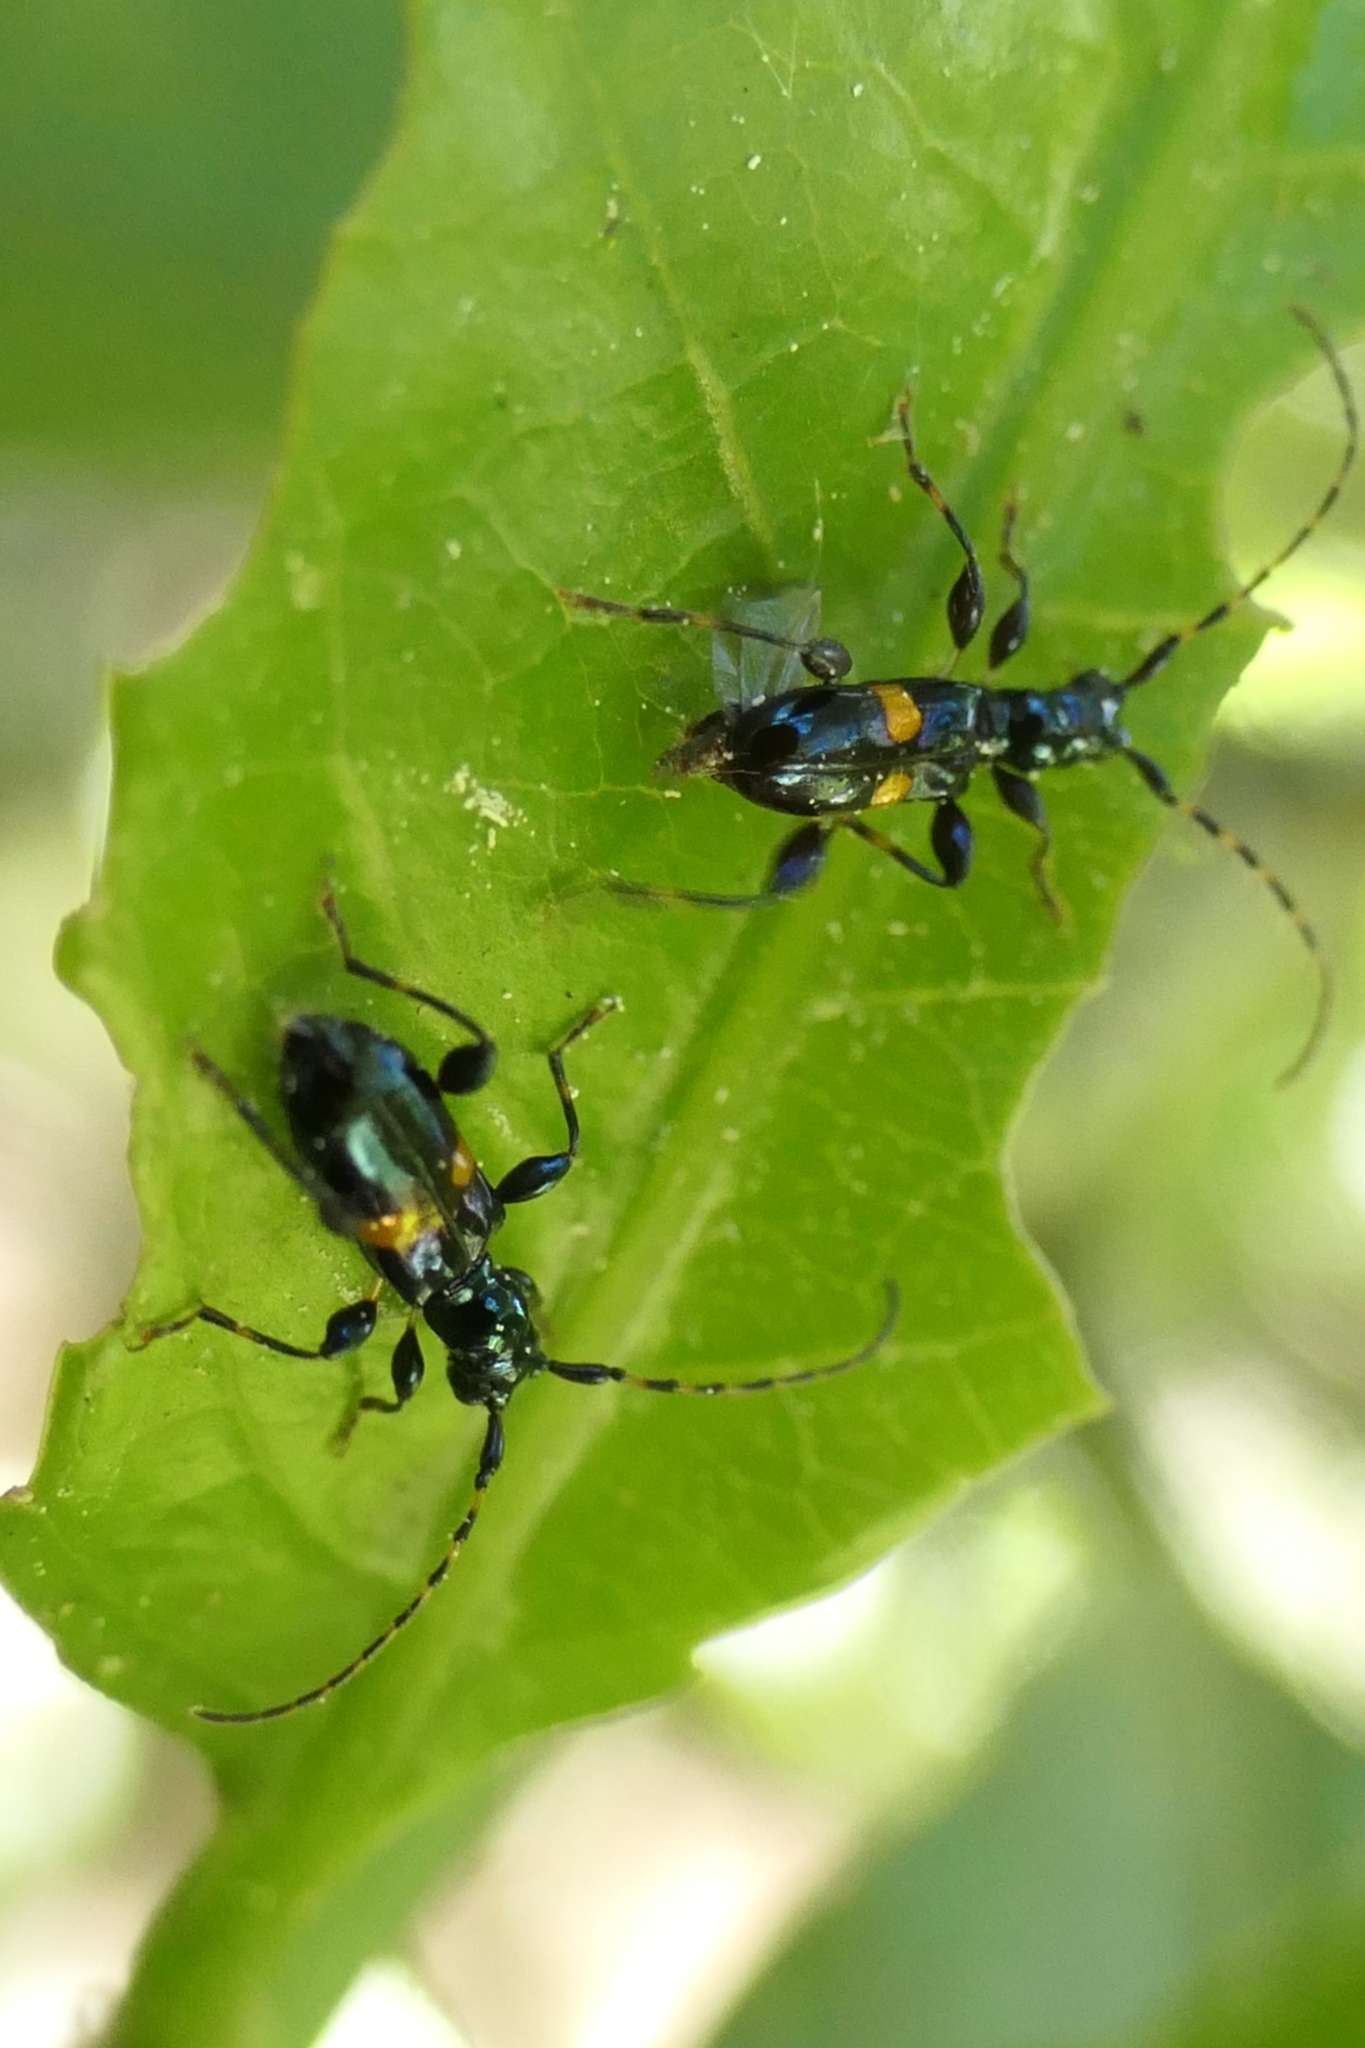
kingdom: Animalia
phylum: Arthropoda
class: Insecta
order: Coleoptera
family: Cerambycidae
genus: Zorion
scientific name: Zorion guttigerum
